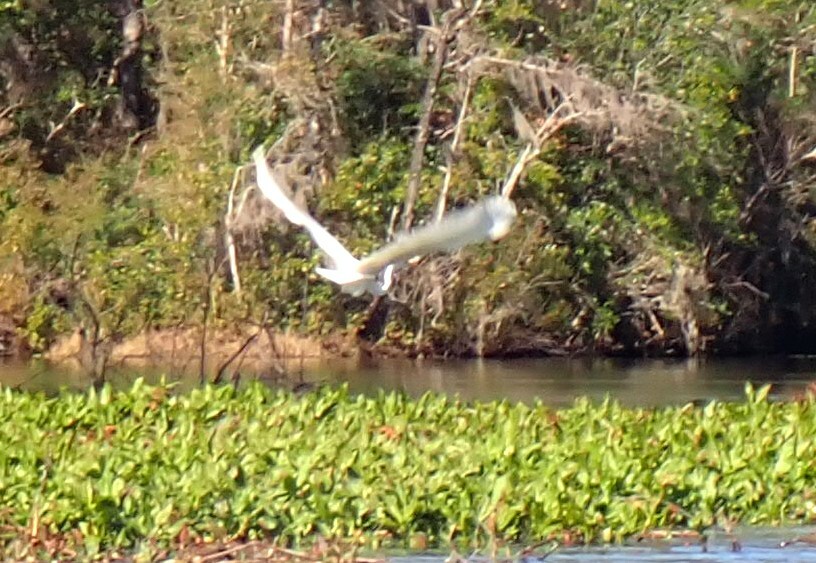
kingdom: Animalia
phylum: Chordata
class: Aves
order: Pelecaniformes
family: Ardeidae
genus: Ardea
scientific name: Ardea alba
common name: Great egret
